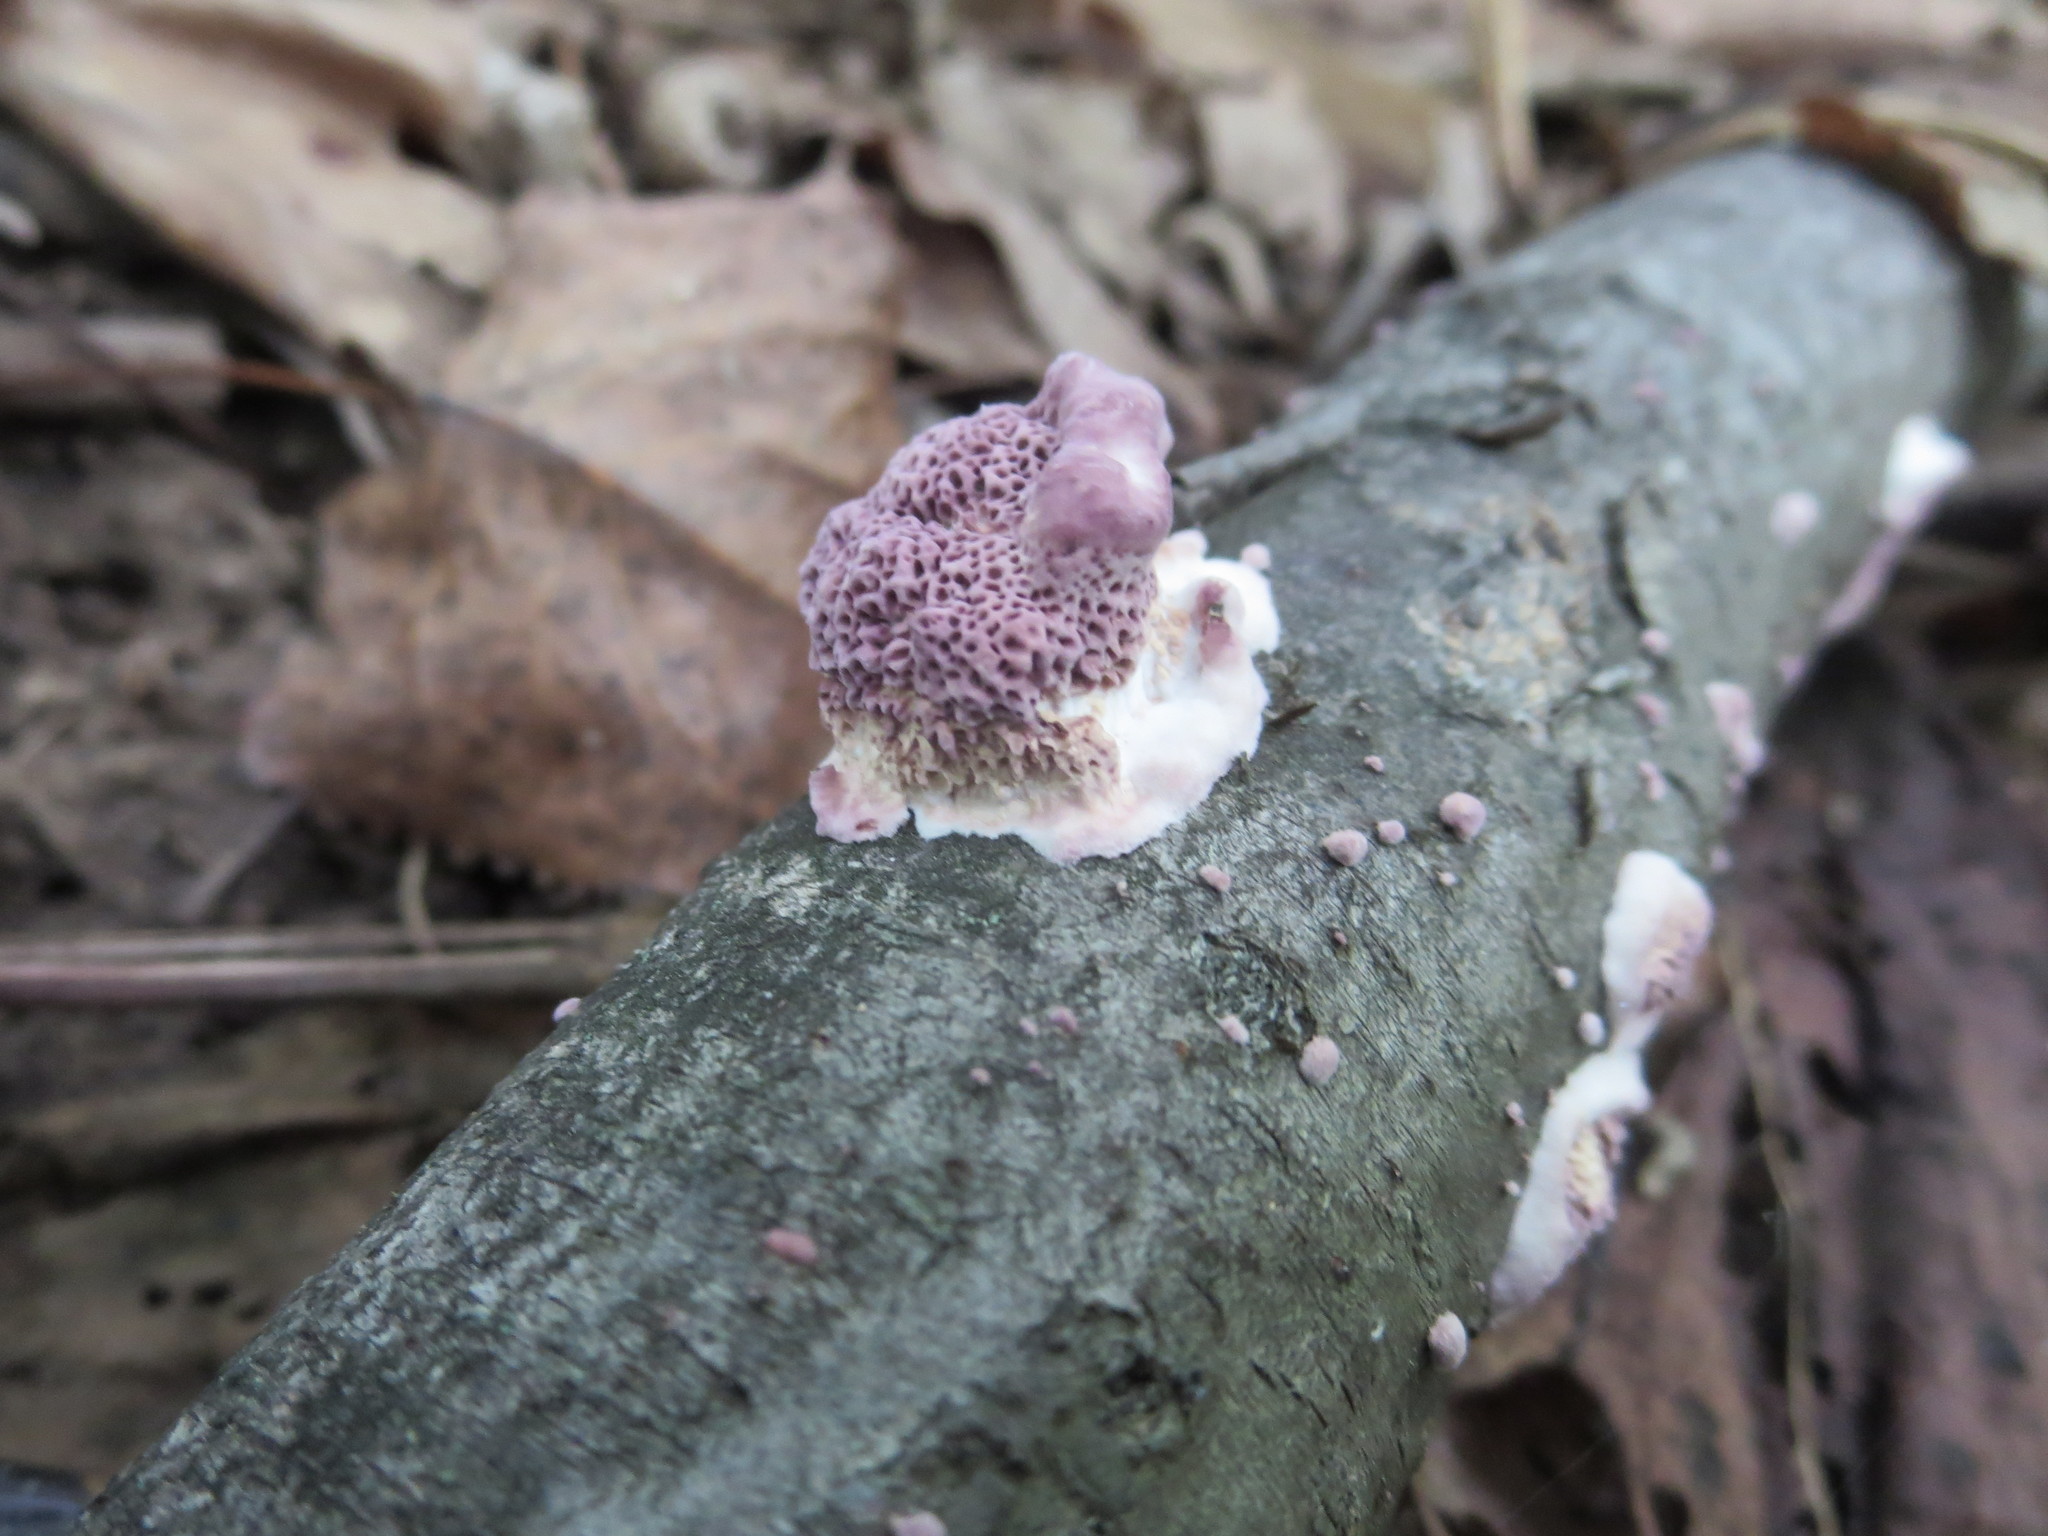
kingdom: Fungi
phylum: Basidiomycota
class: Agaricomycetes
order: Hymenochaetales
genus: Trichaptum
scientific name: Trichaptum biforme
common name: Violet-toothed polypore
